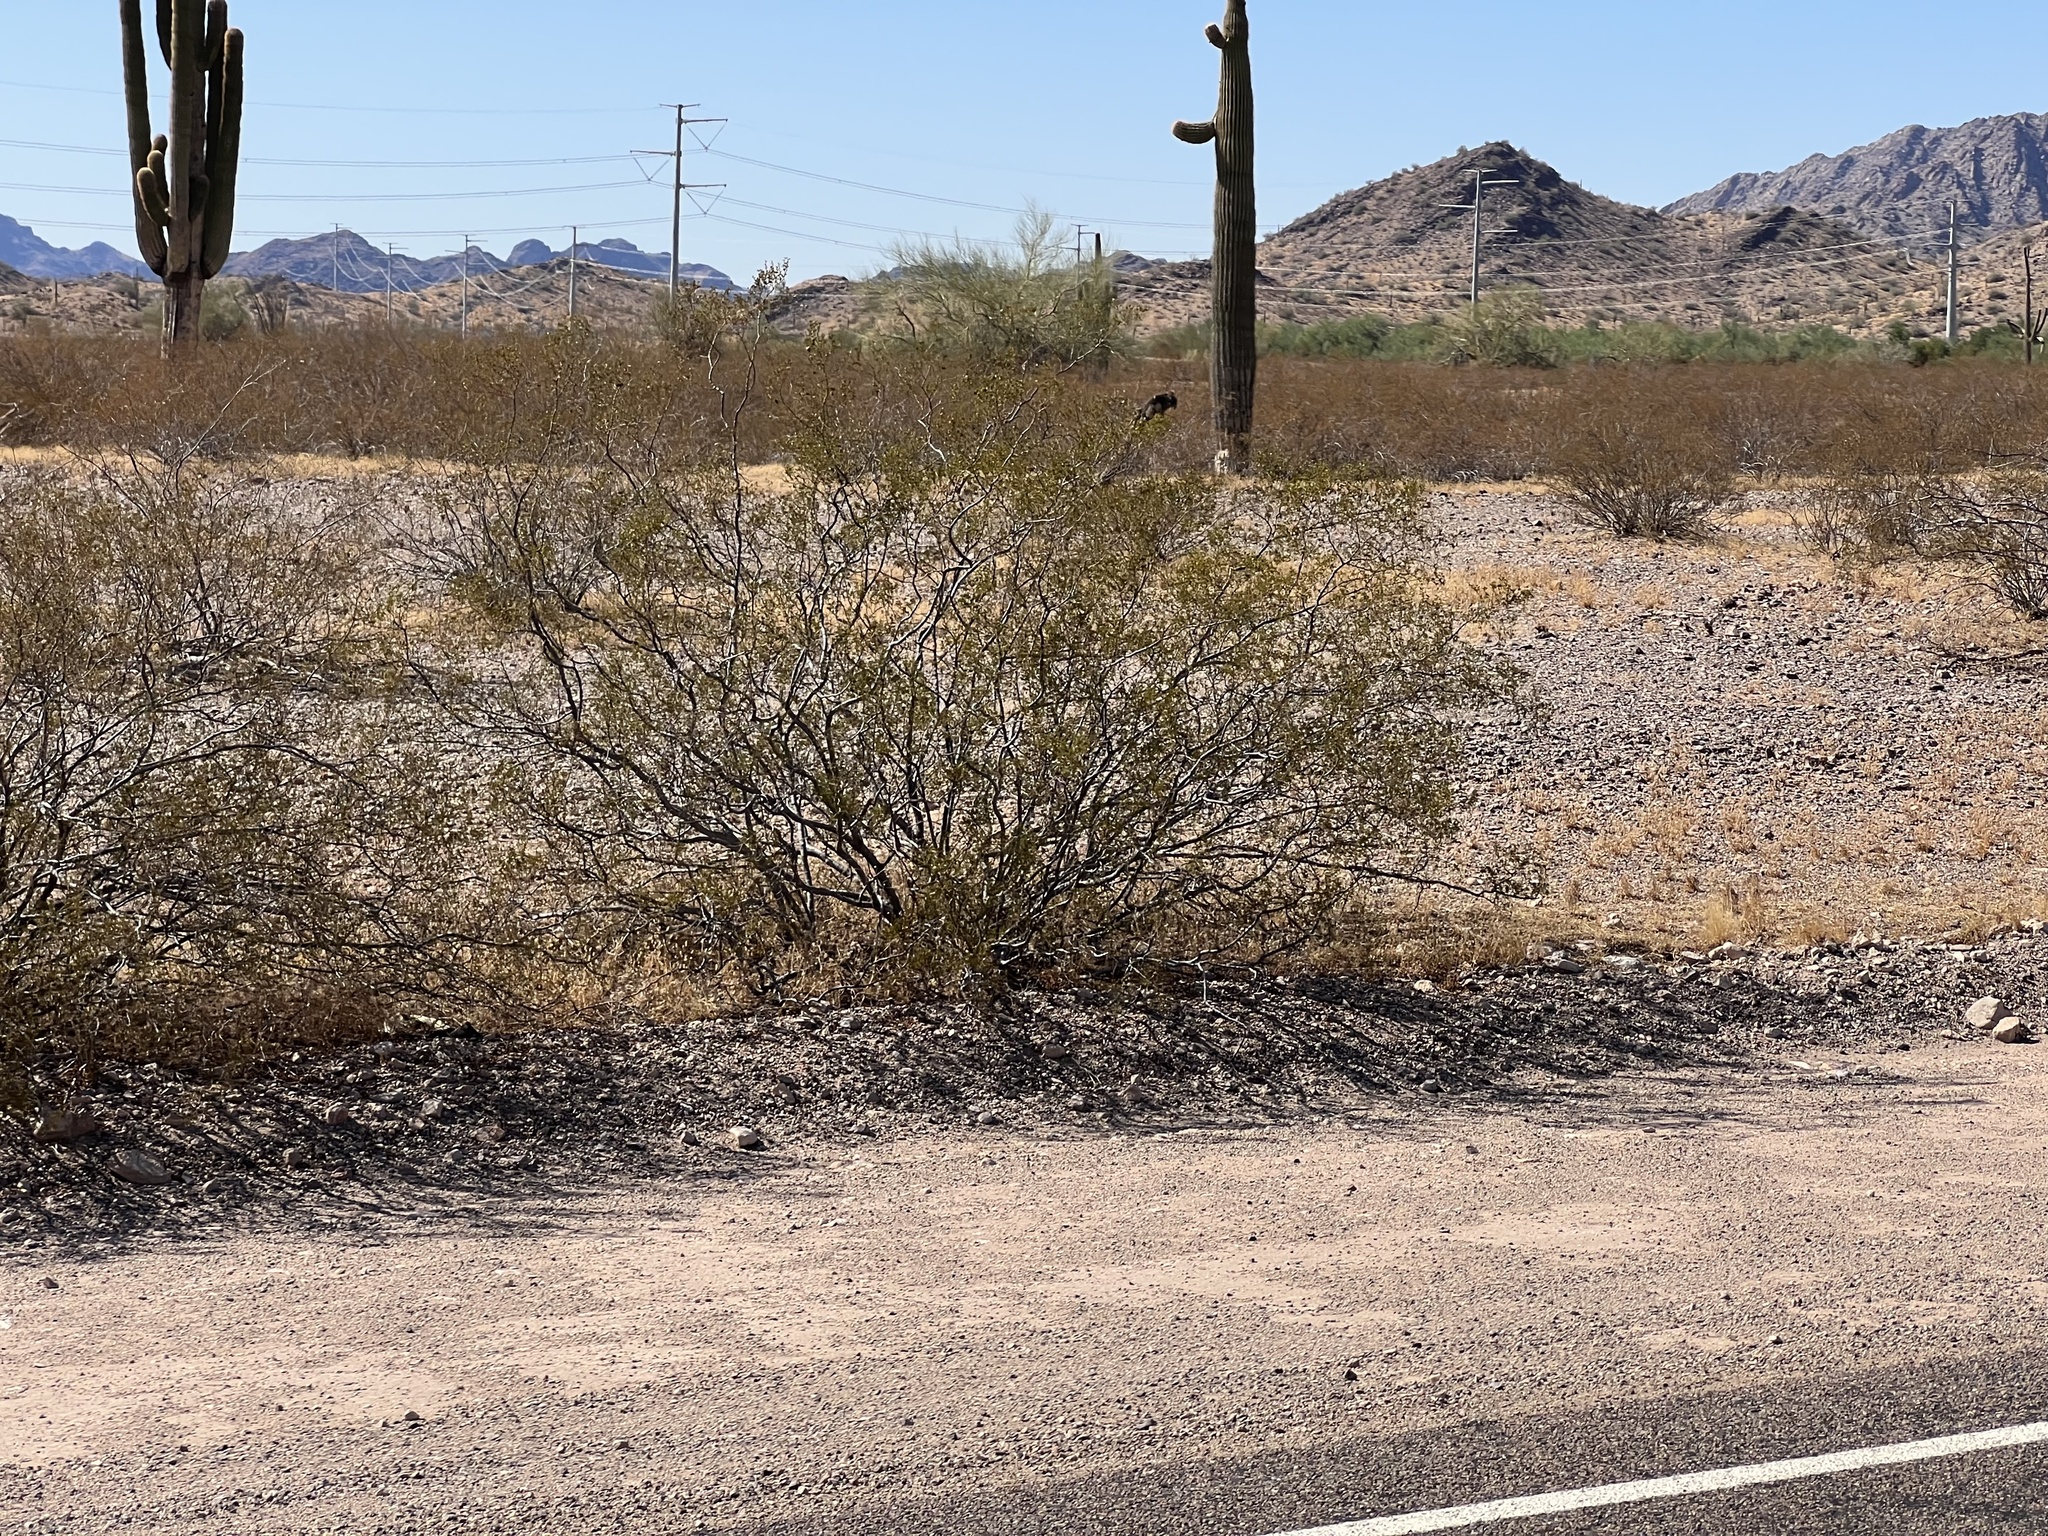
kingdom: Plantae
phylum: Tracheophyta
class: Magnoliopsida
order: Zygophyllales
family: Zygophyllaceae
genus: Larrea
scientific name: Larrea tridentata
